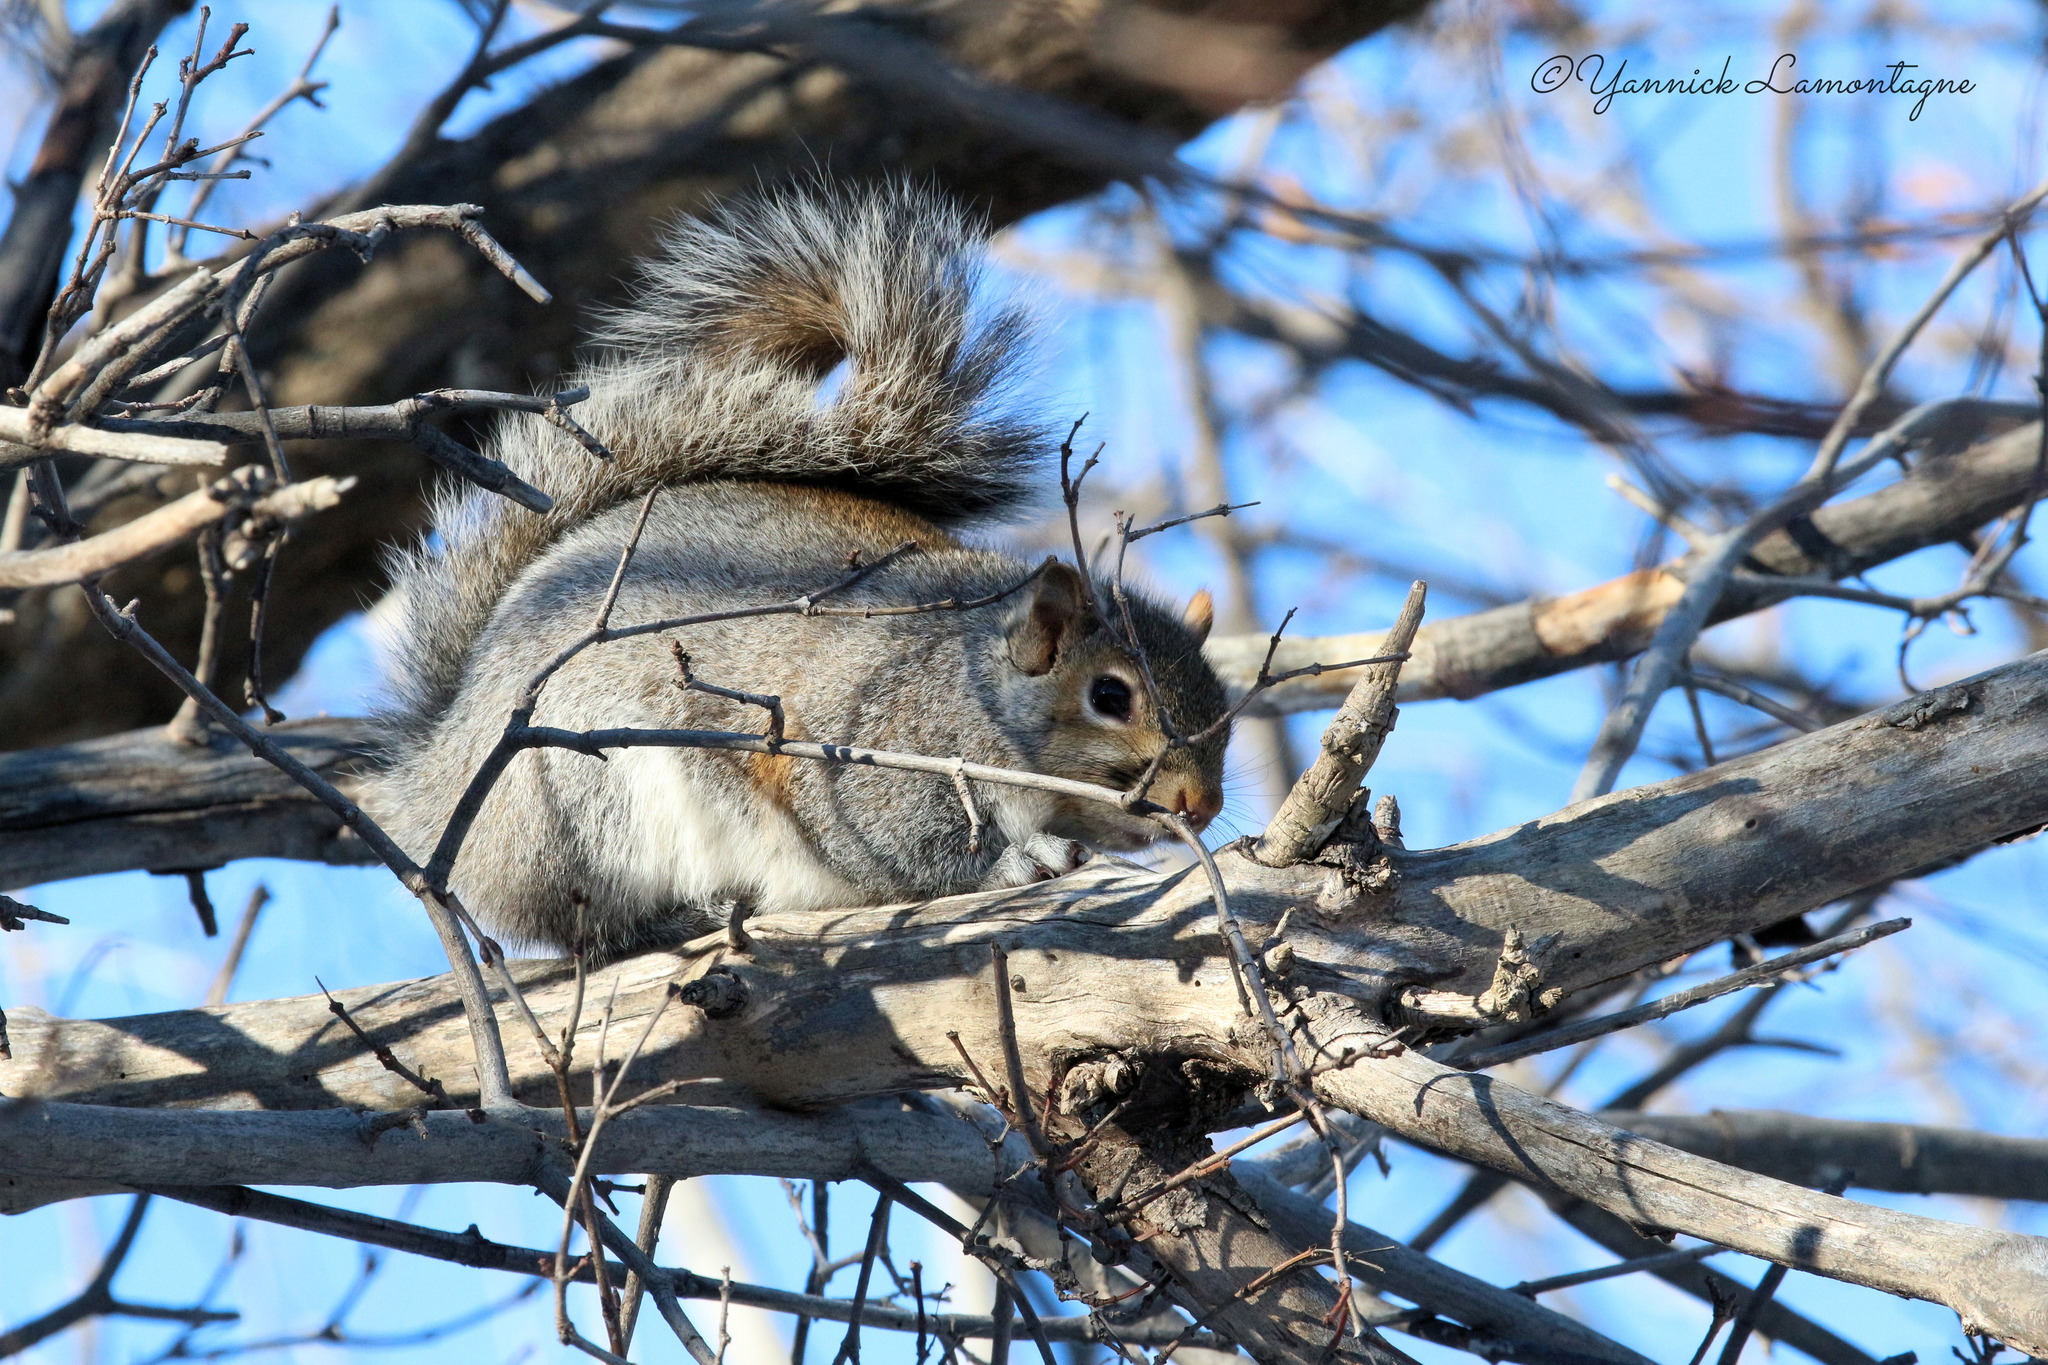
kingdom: Animalia
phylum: Chordata
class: Mammalia
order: Rodentia
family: Sciuridae
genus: Sciurus
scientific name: Sciurus carolinensis
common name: Eastern gray squirrel
